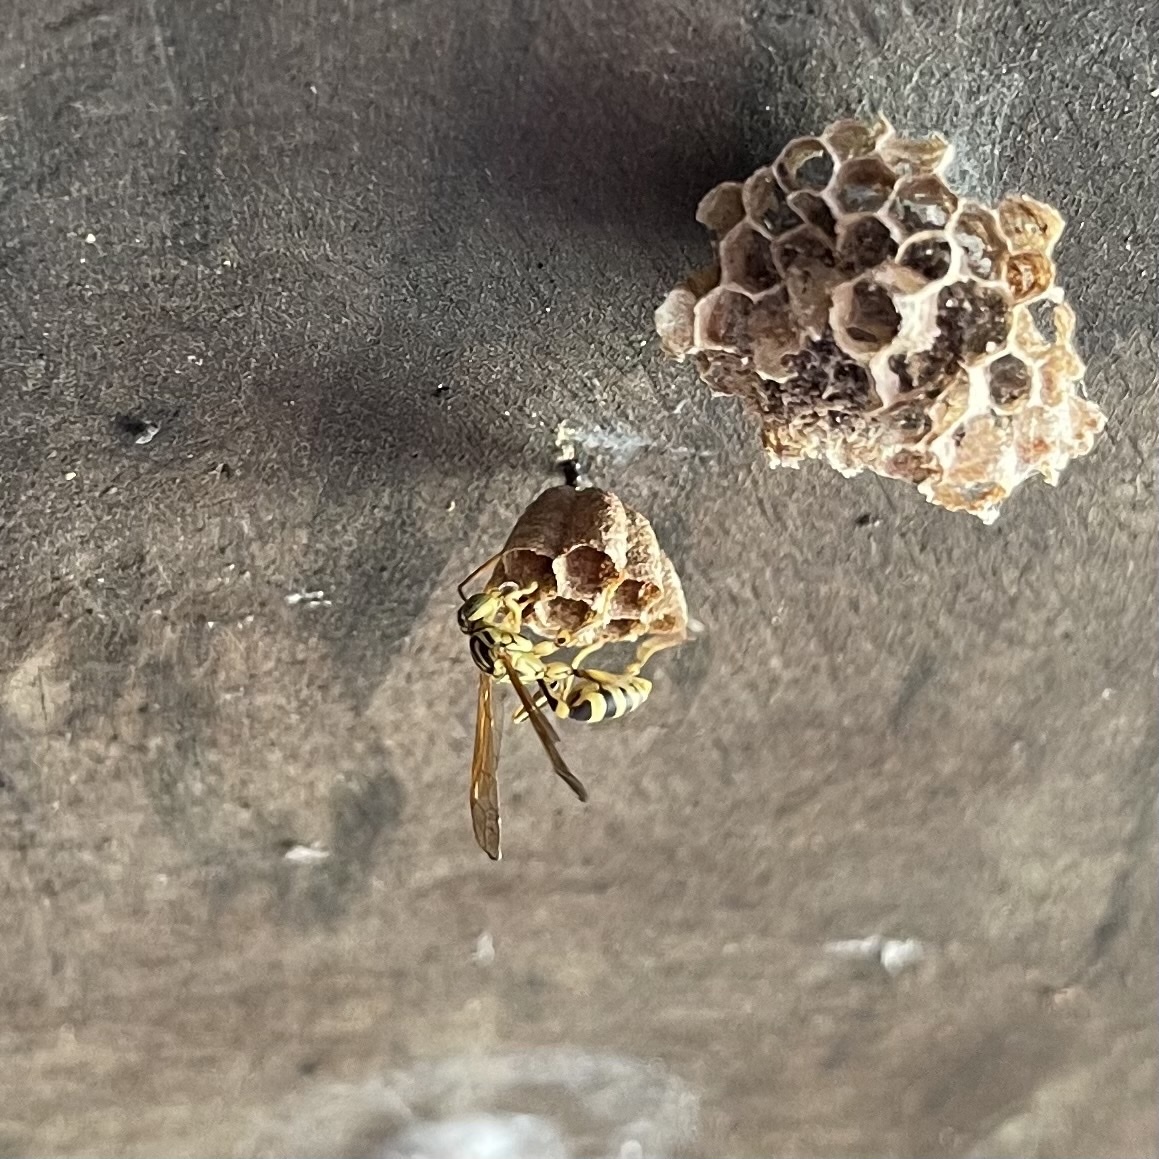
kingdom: Animalia
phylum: Arthropoda
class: Insecta
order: Hymenoptera
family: Vespidae
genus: Mischocyttarus
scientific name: Mischocyttarus basimacula
